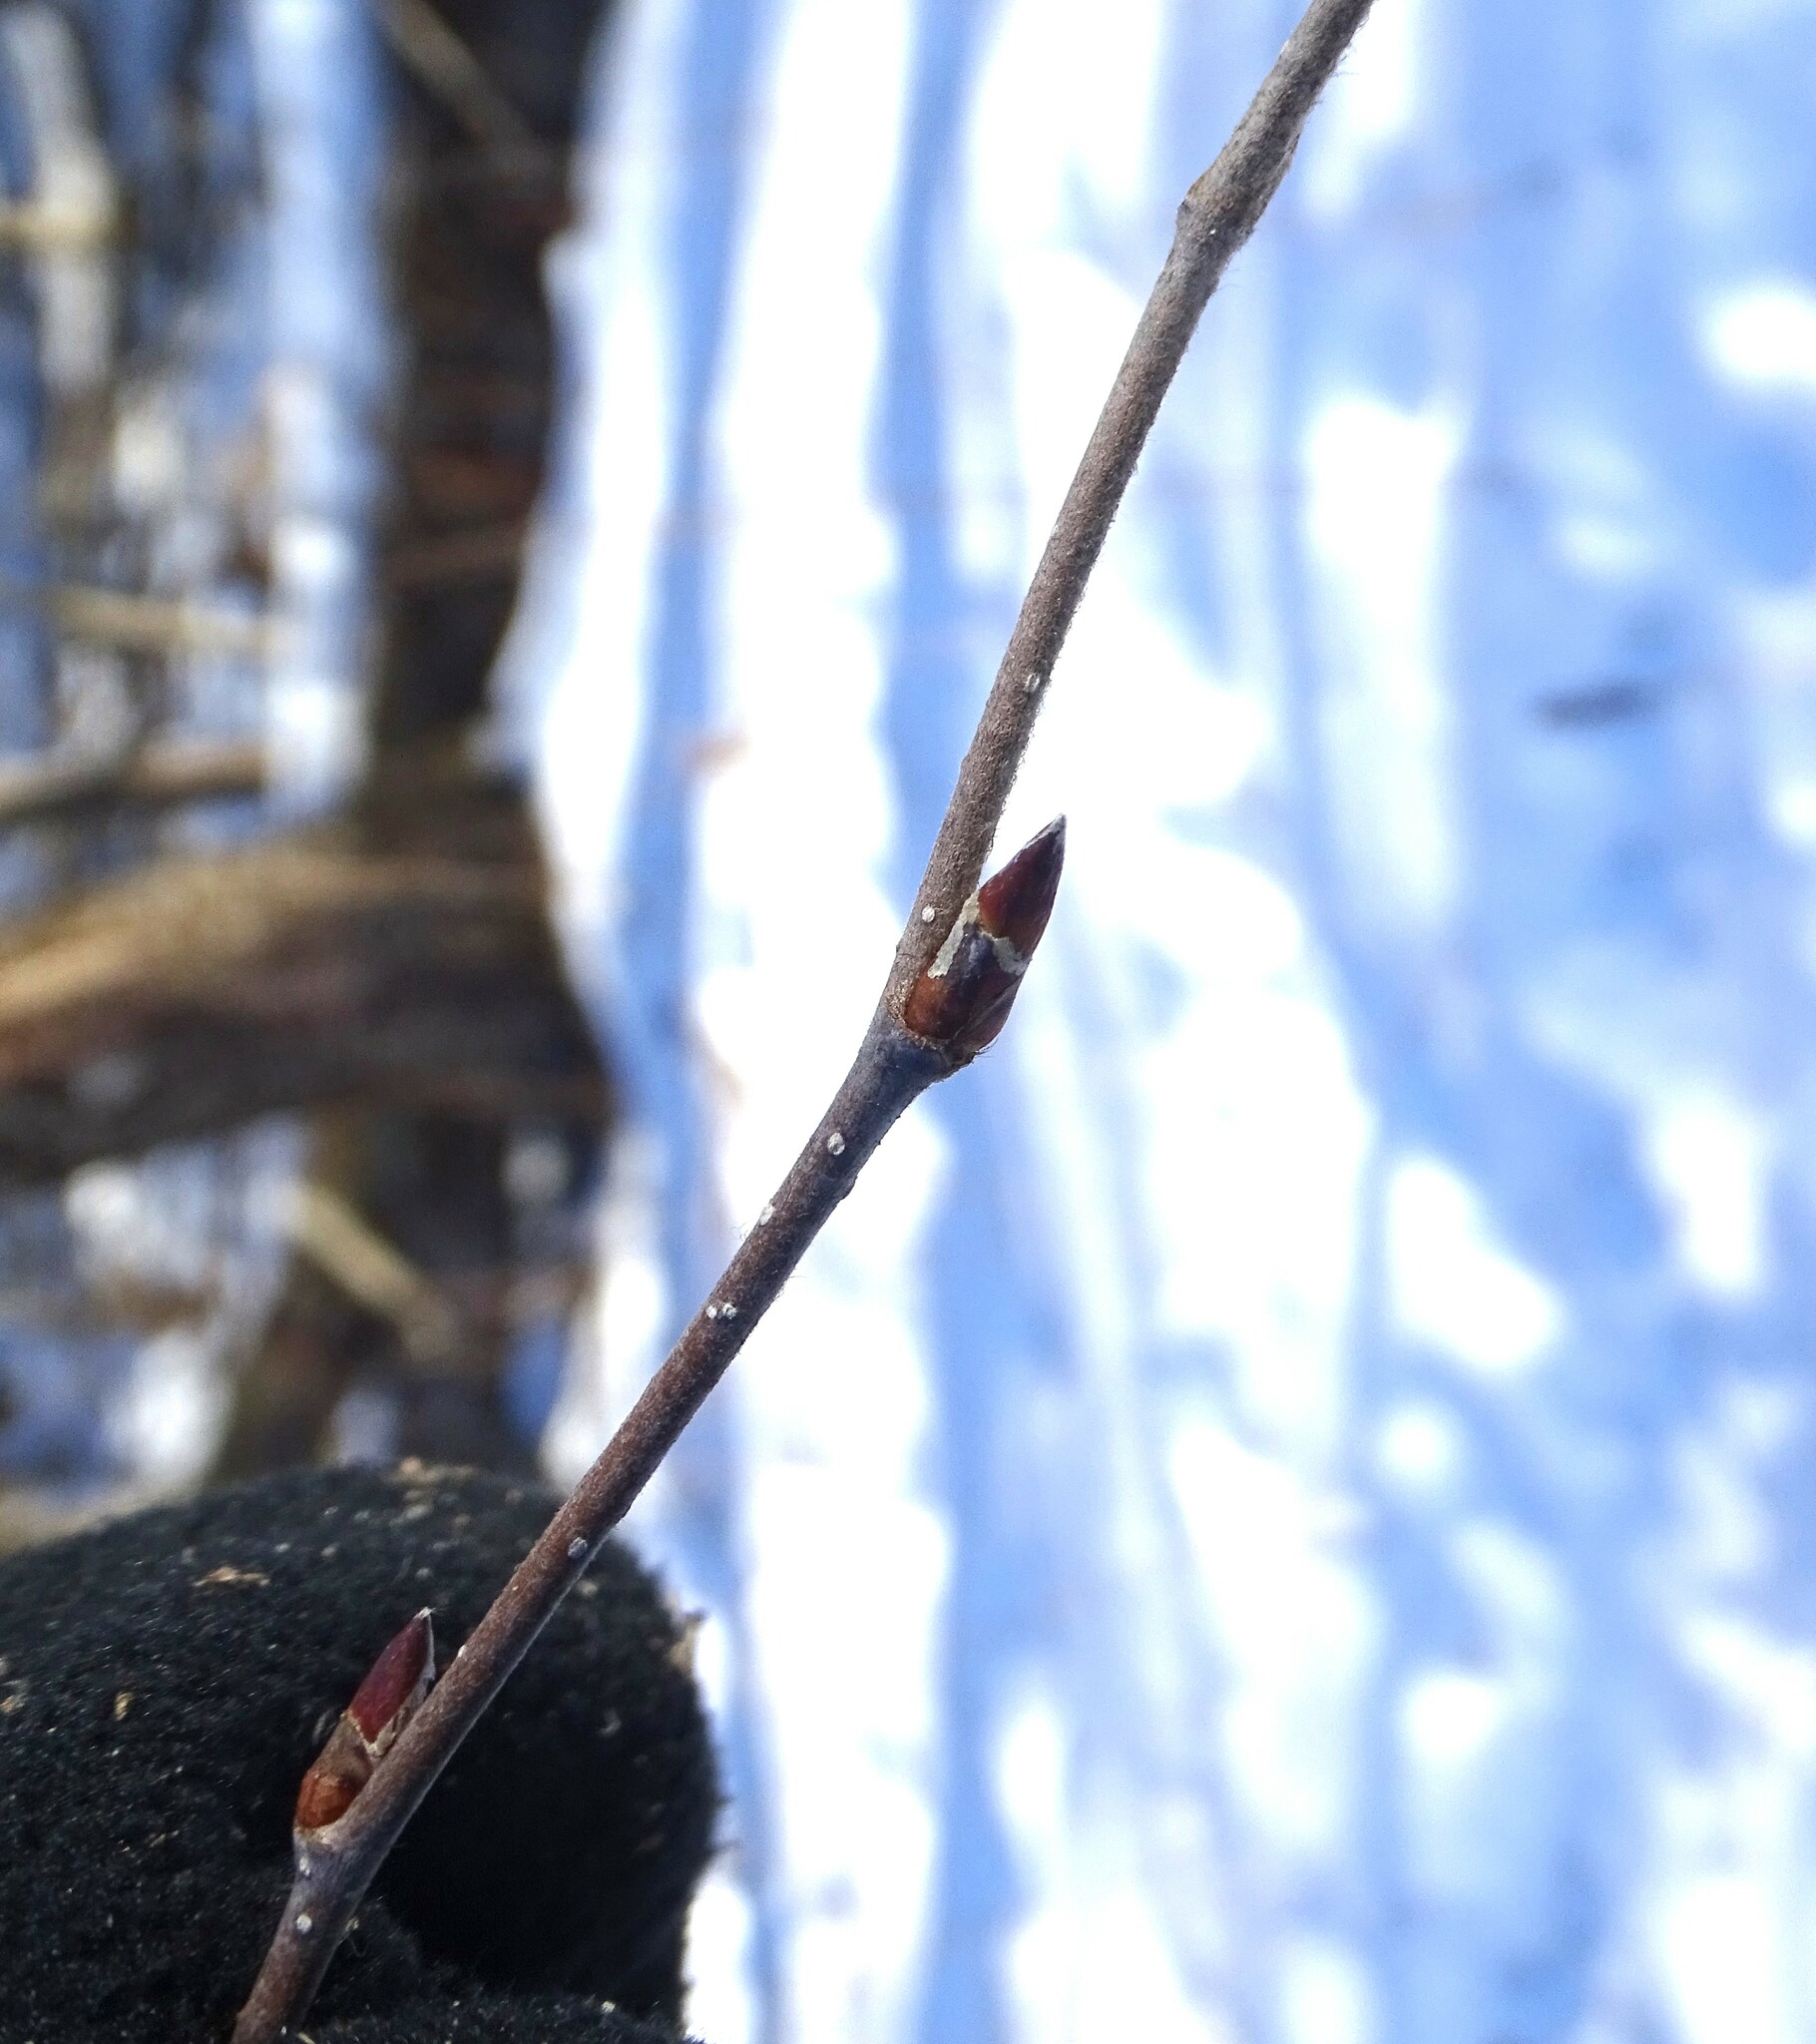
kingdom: Plantae
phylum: Tracheophyta
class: Magnoliopsida
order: Fagales
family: Betulaceae
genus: Betula
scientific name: Betula alleghaniensis
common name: Yellow birch
